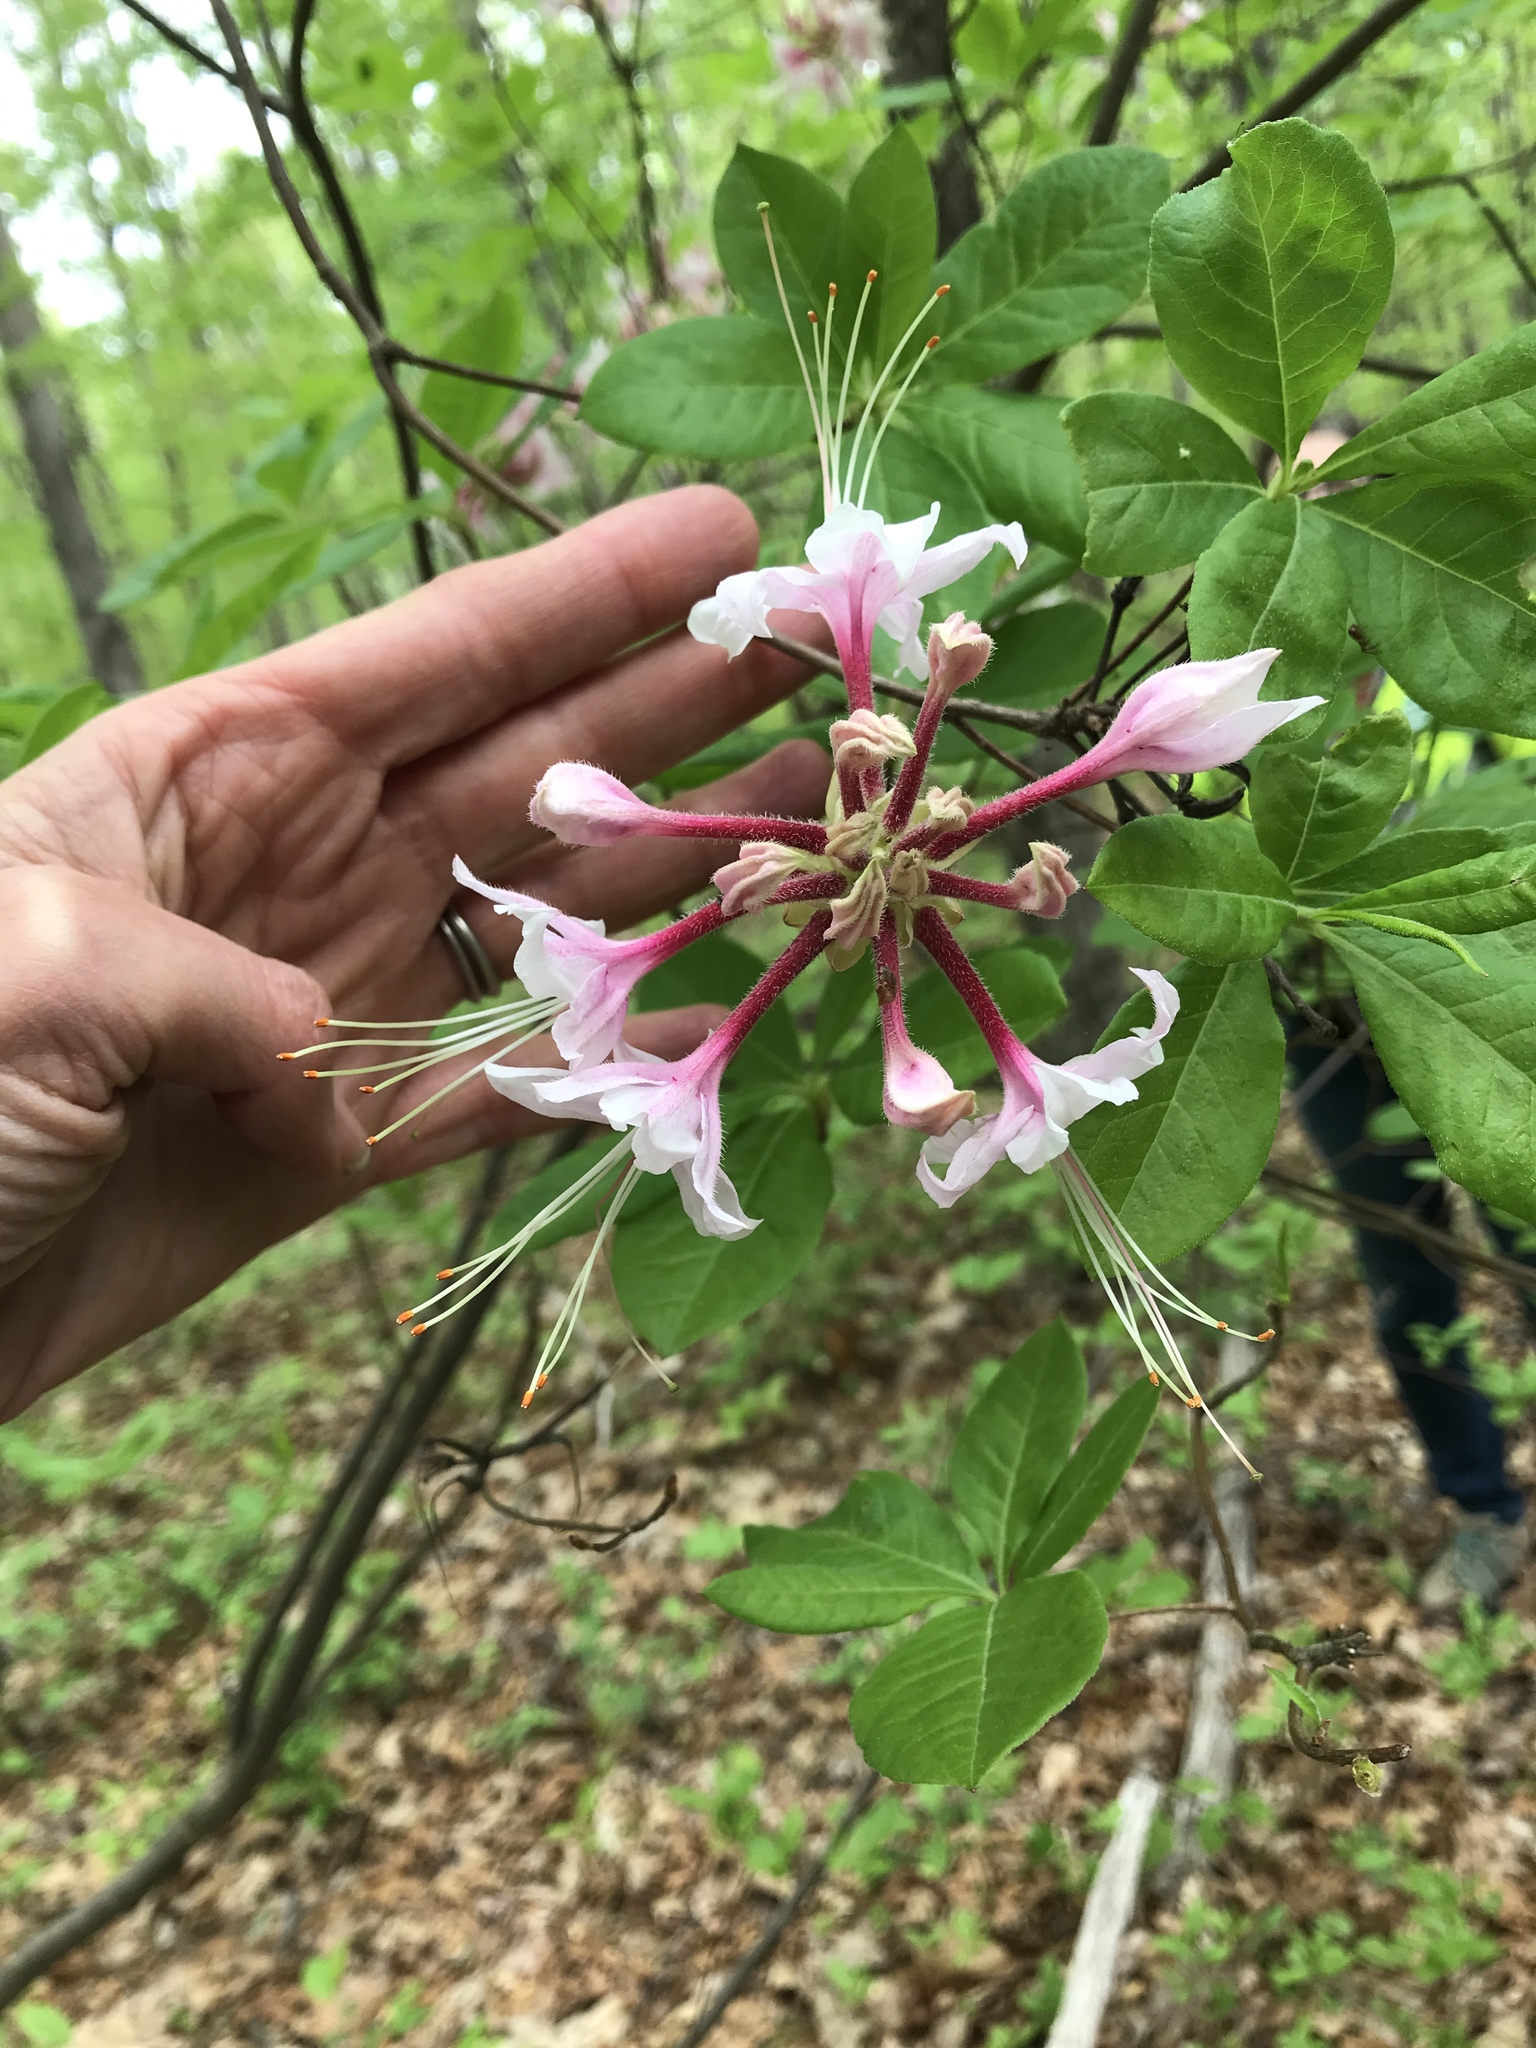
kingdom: Plantae
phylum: Tracheophyta
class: Magnoliopsida
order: Ericales
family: Ericaceae
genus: Rhododendron
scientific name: Rhododendron periclymenoides
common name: Election-pink
